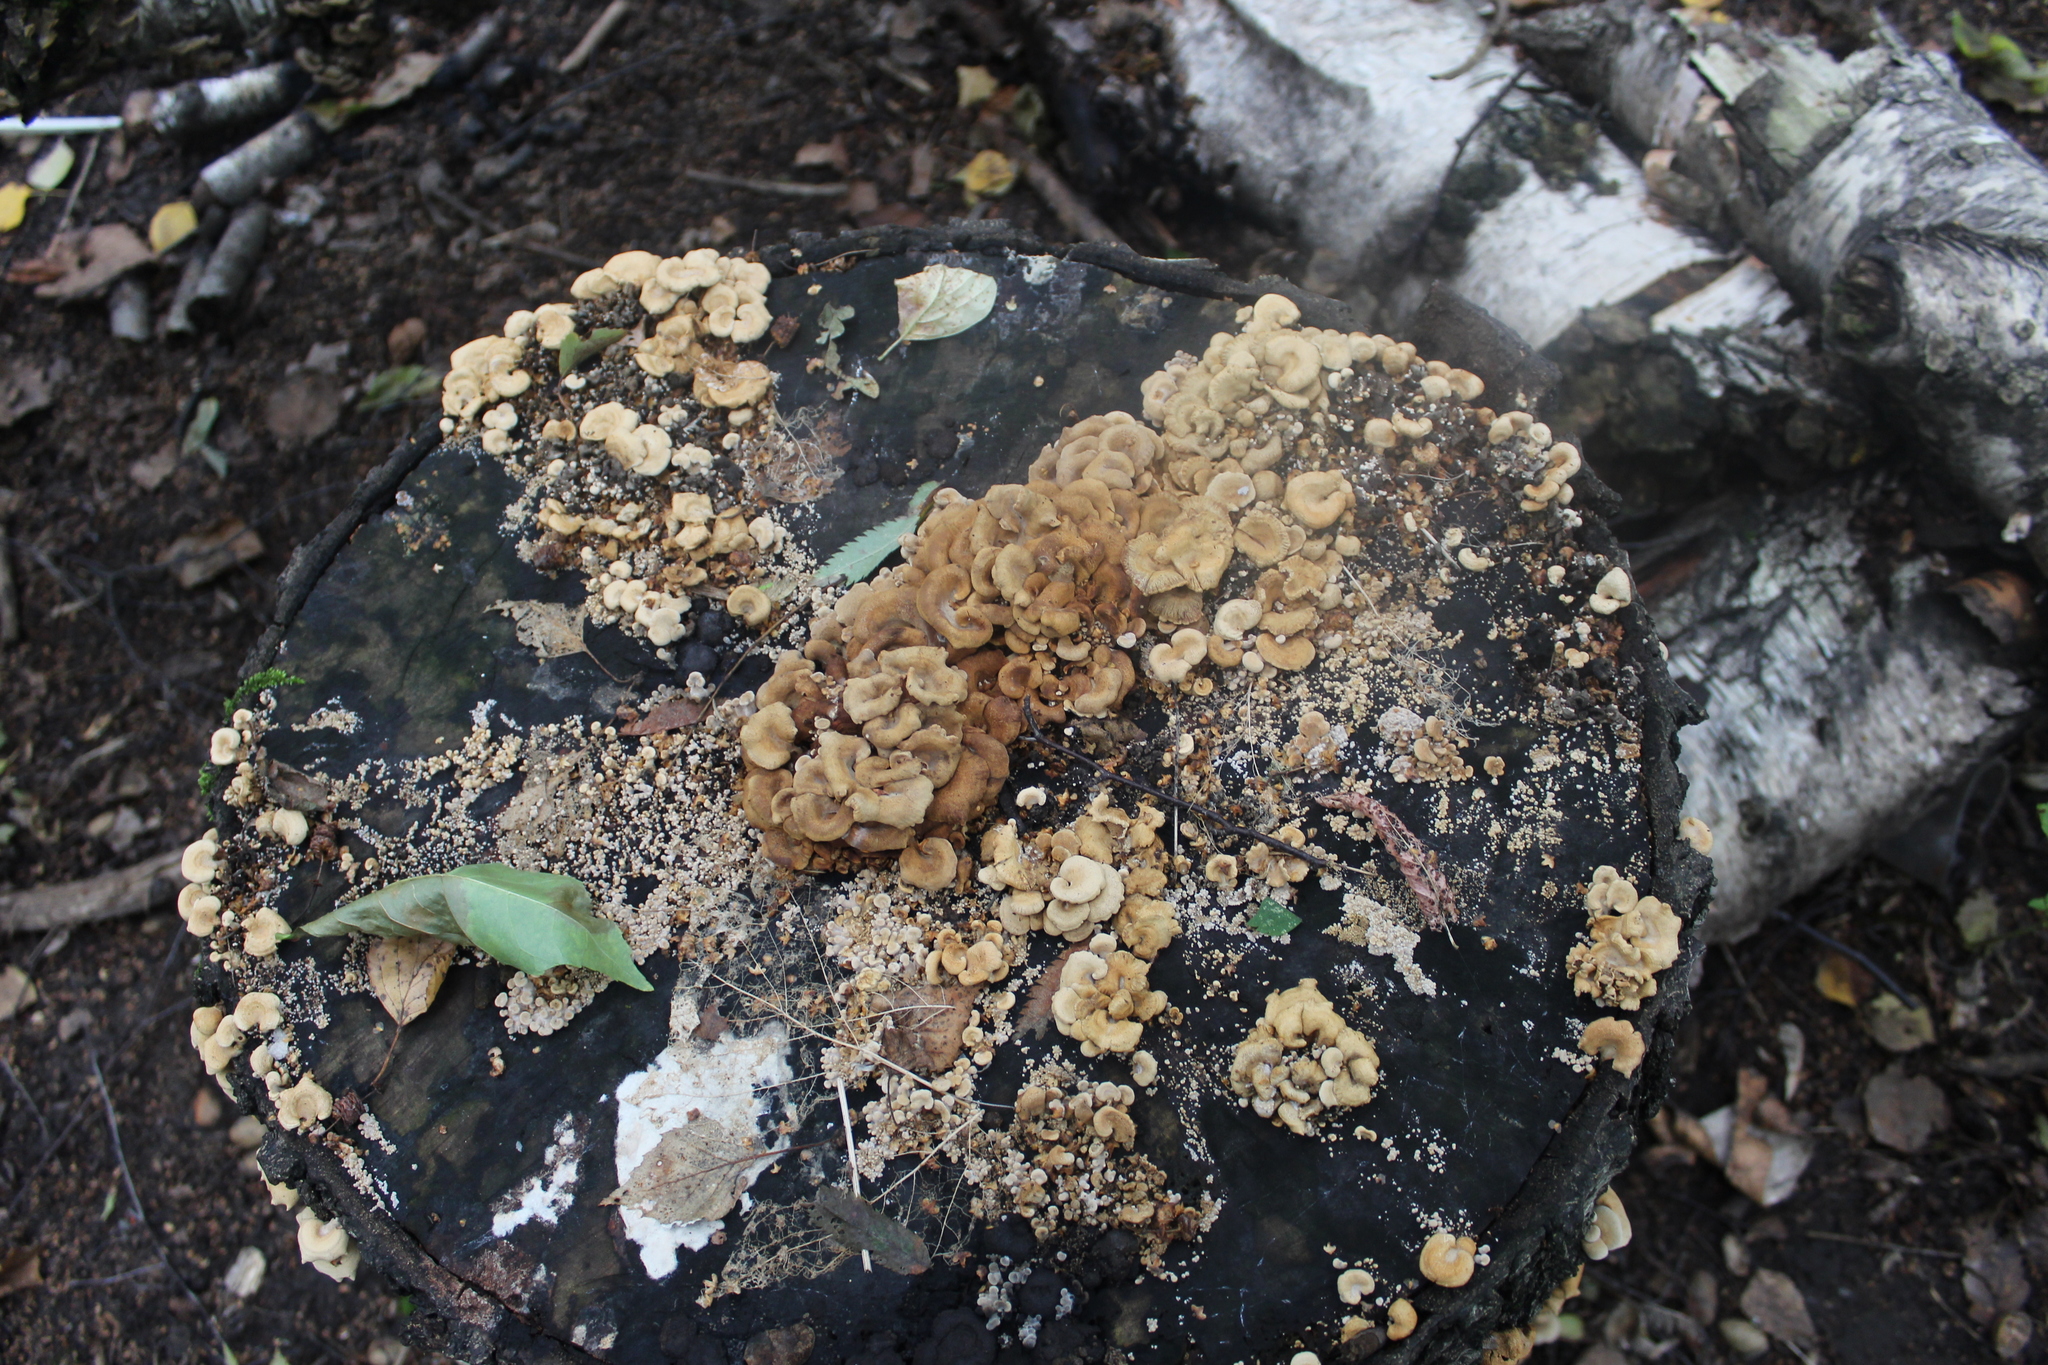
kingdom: Fungi
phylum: Basidiomycota
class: Agaricomycetes
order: Agaricales
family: Mycenaceae
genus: Panellus
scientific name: Panellus stipticus
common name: Bitter oysterling
